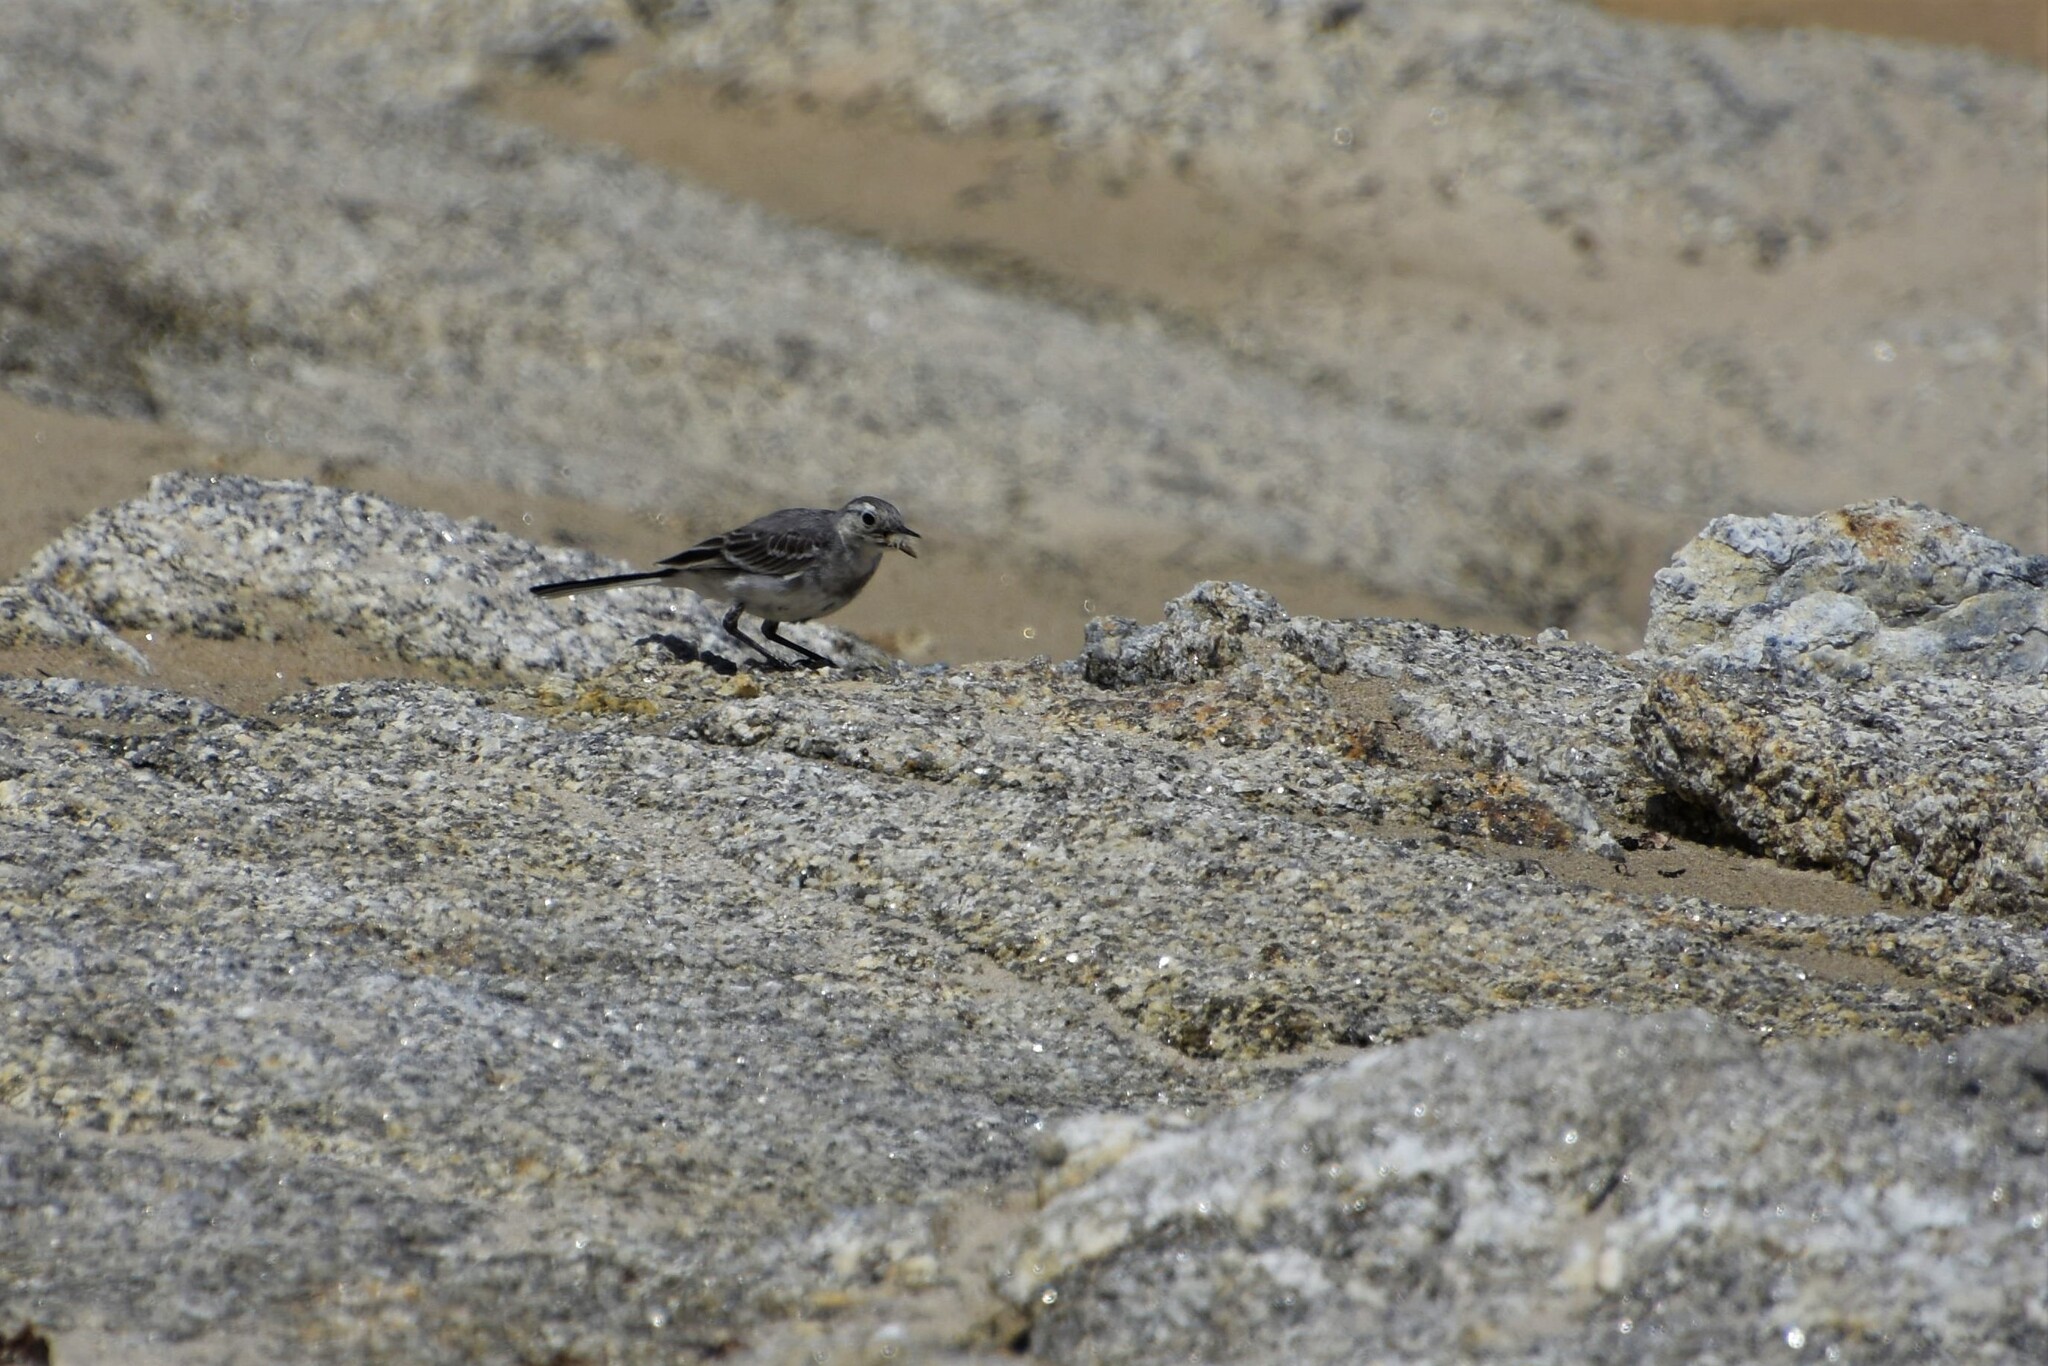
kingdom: Animalia
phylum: Chordata
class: Aves
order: Passeriformes
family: Motacillidae
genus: Motacilla
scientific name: Motacilla alba
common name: White wagtail
